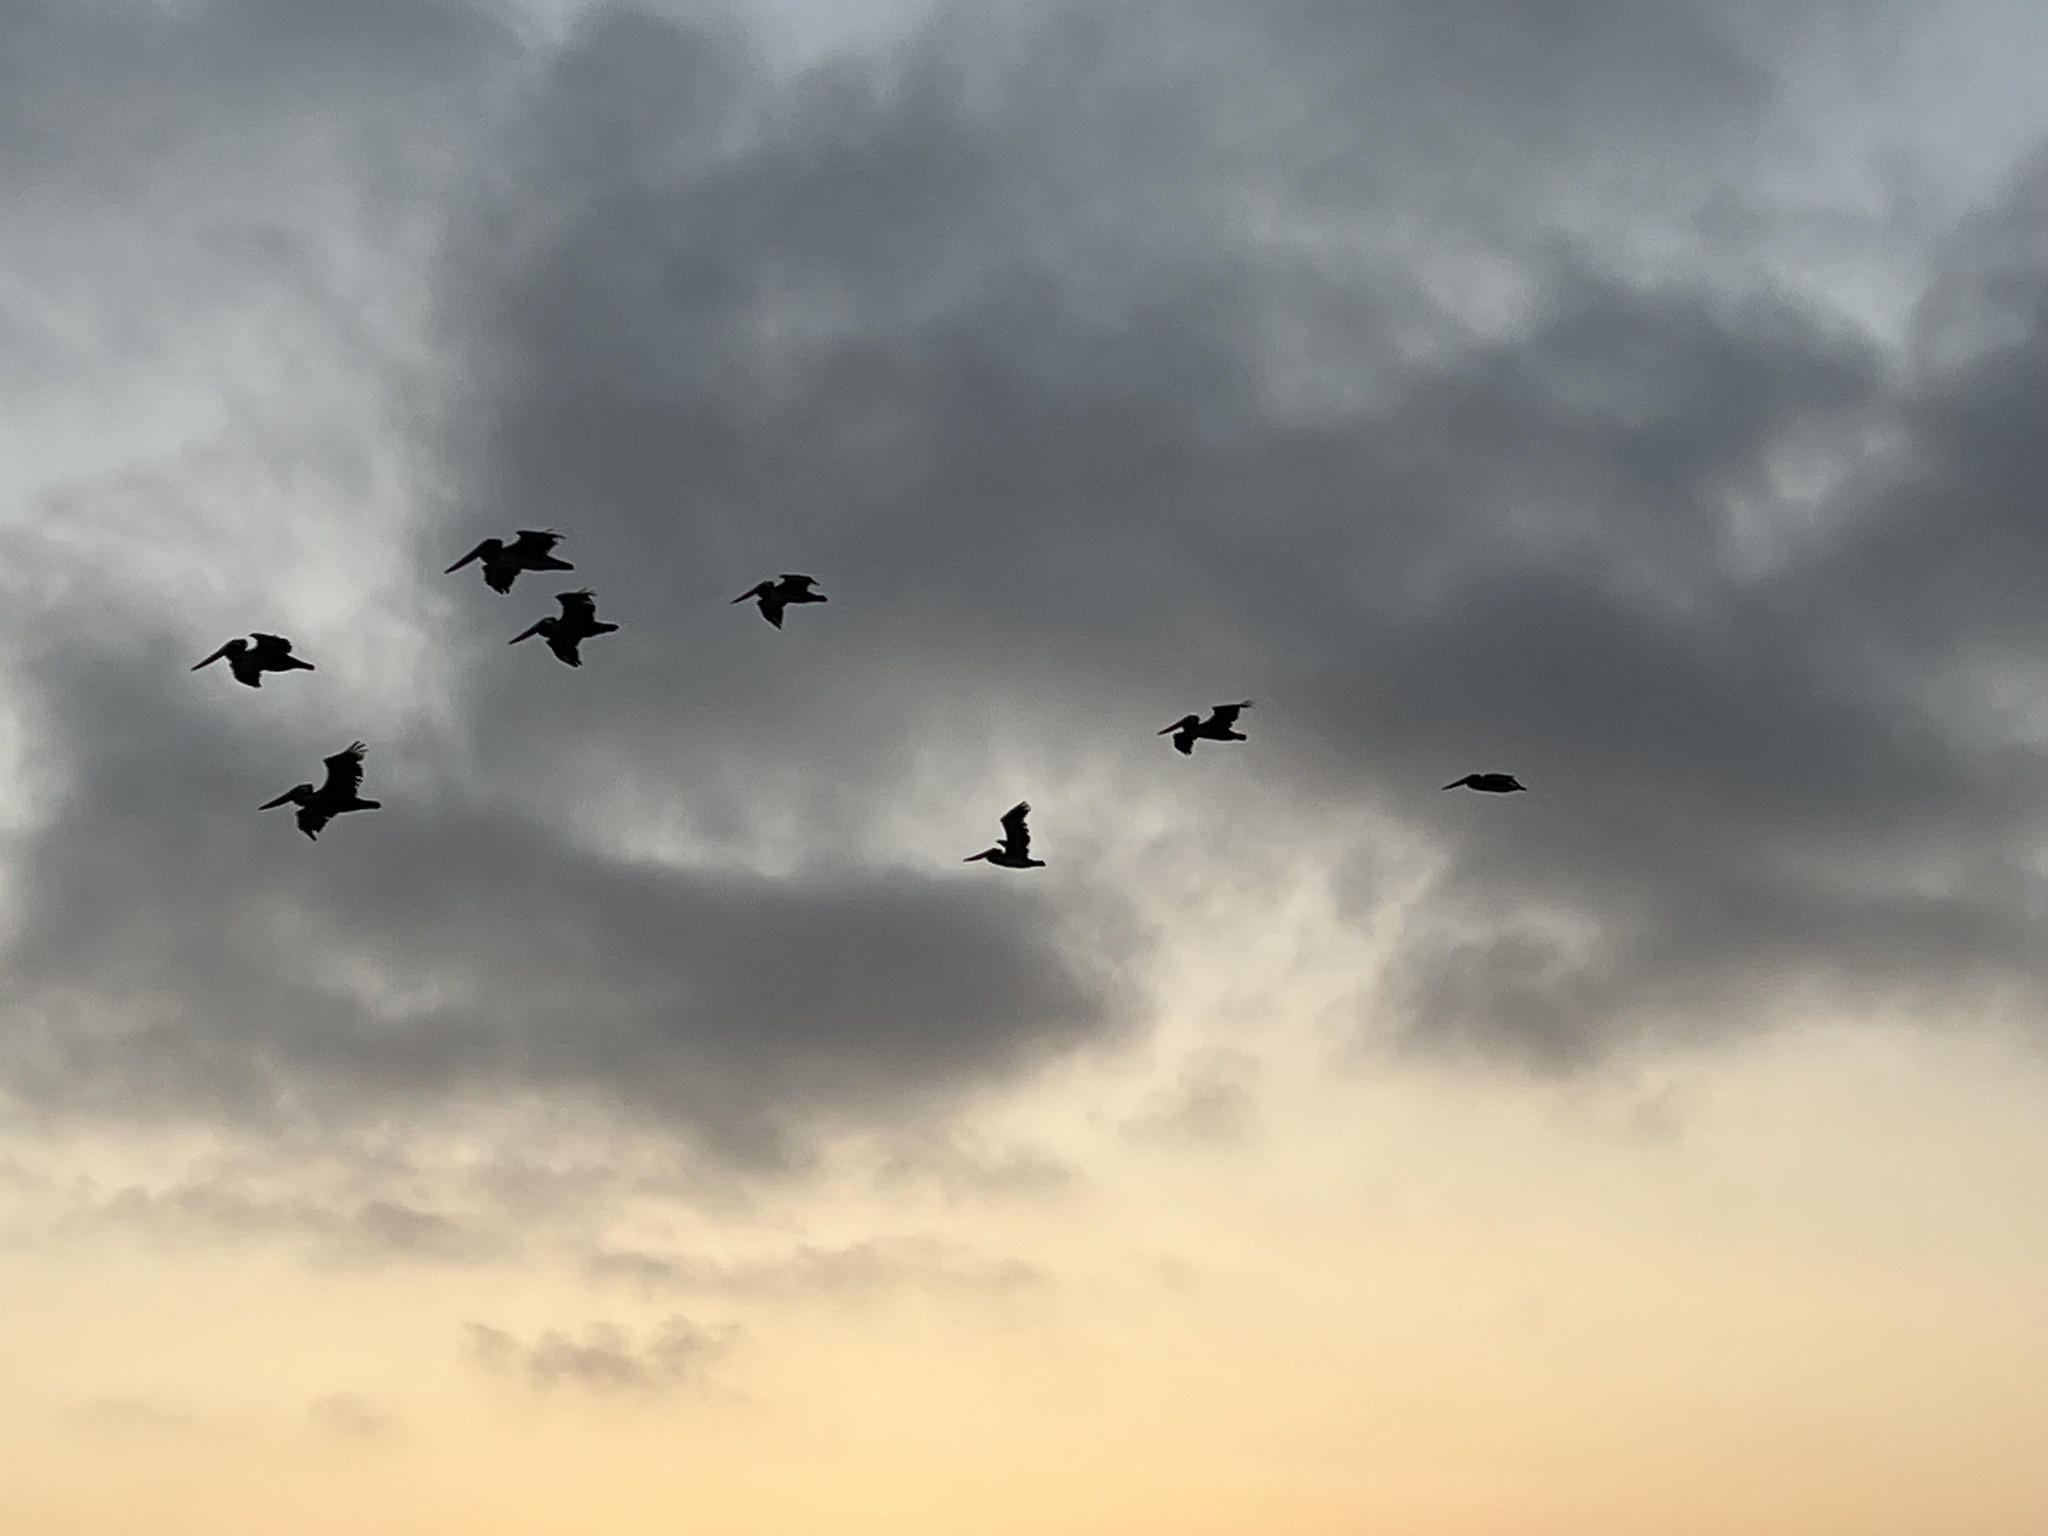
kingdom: Animalia
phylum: Chordata
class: Aves
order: Pelecaniformes
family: Pelecanidae
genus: Pelecanus
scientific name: Pelecanus occidentalis
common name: Brown pelican
